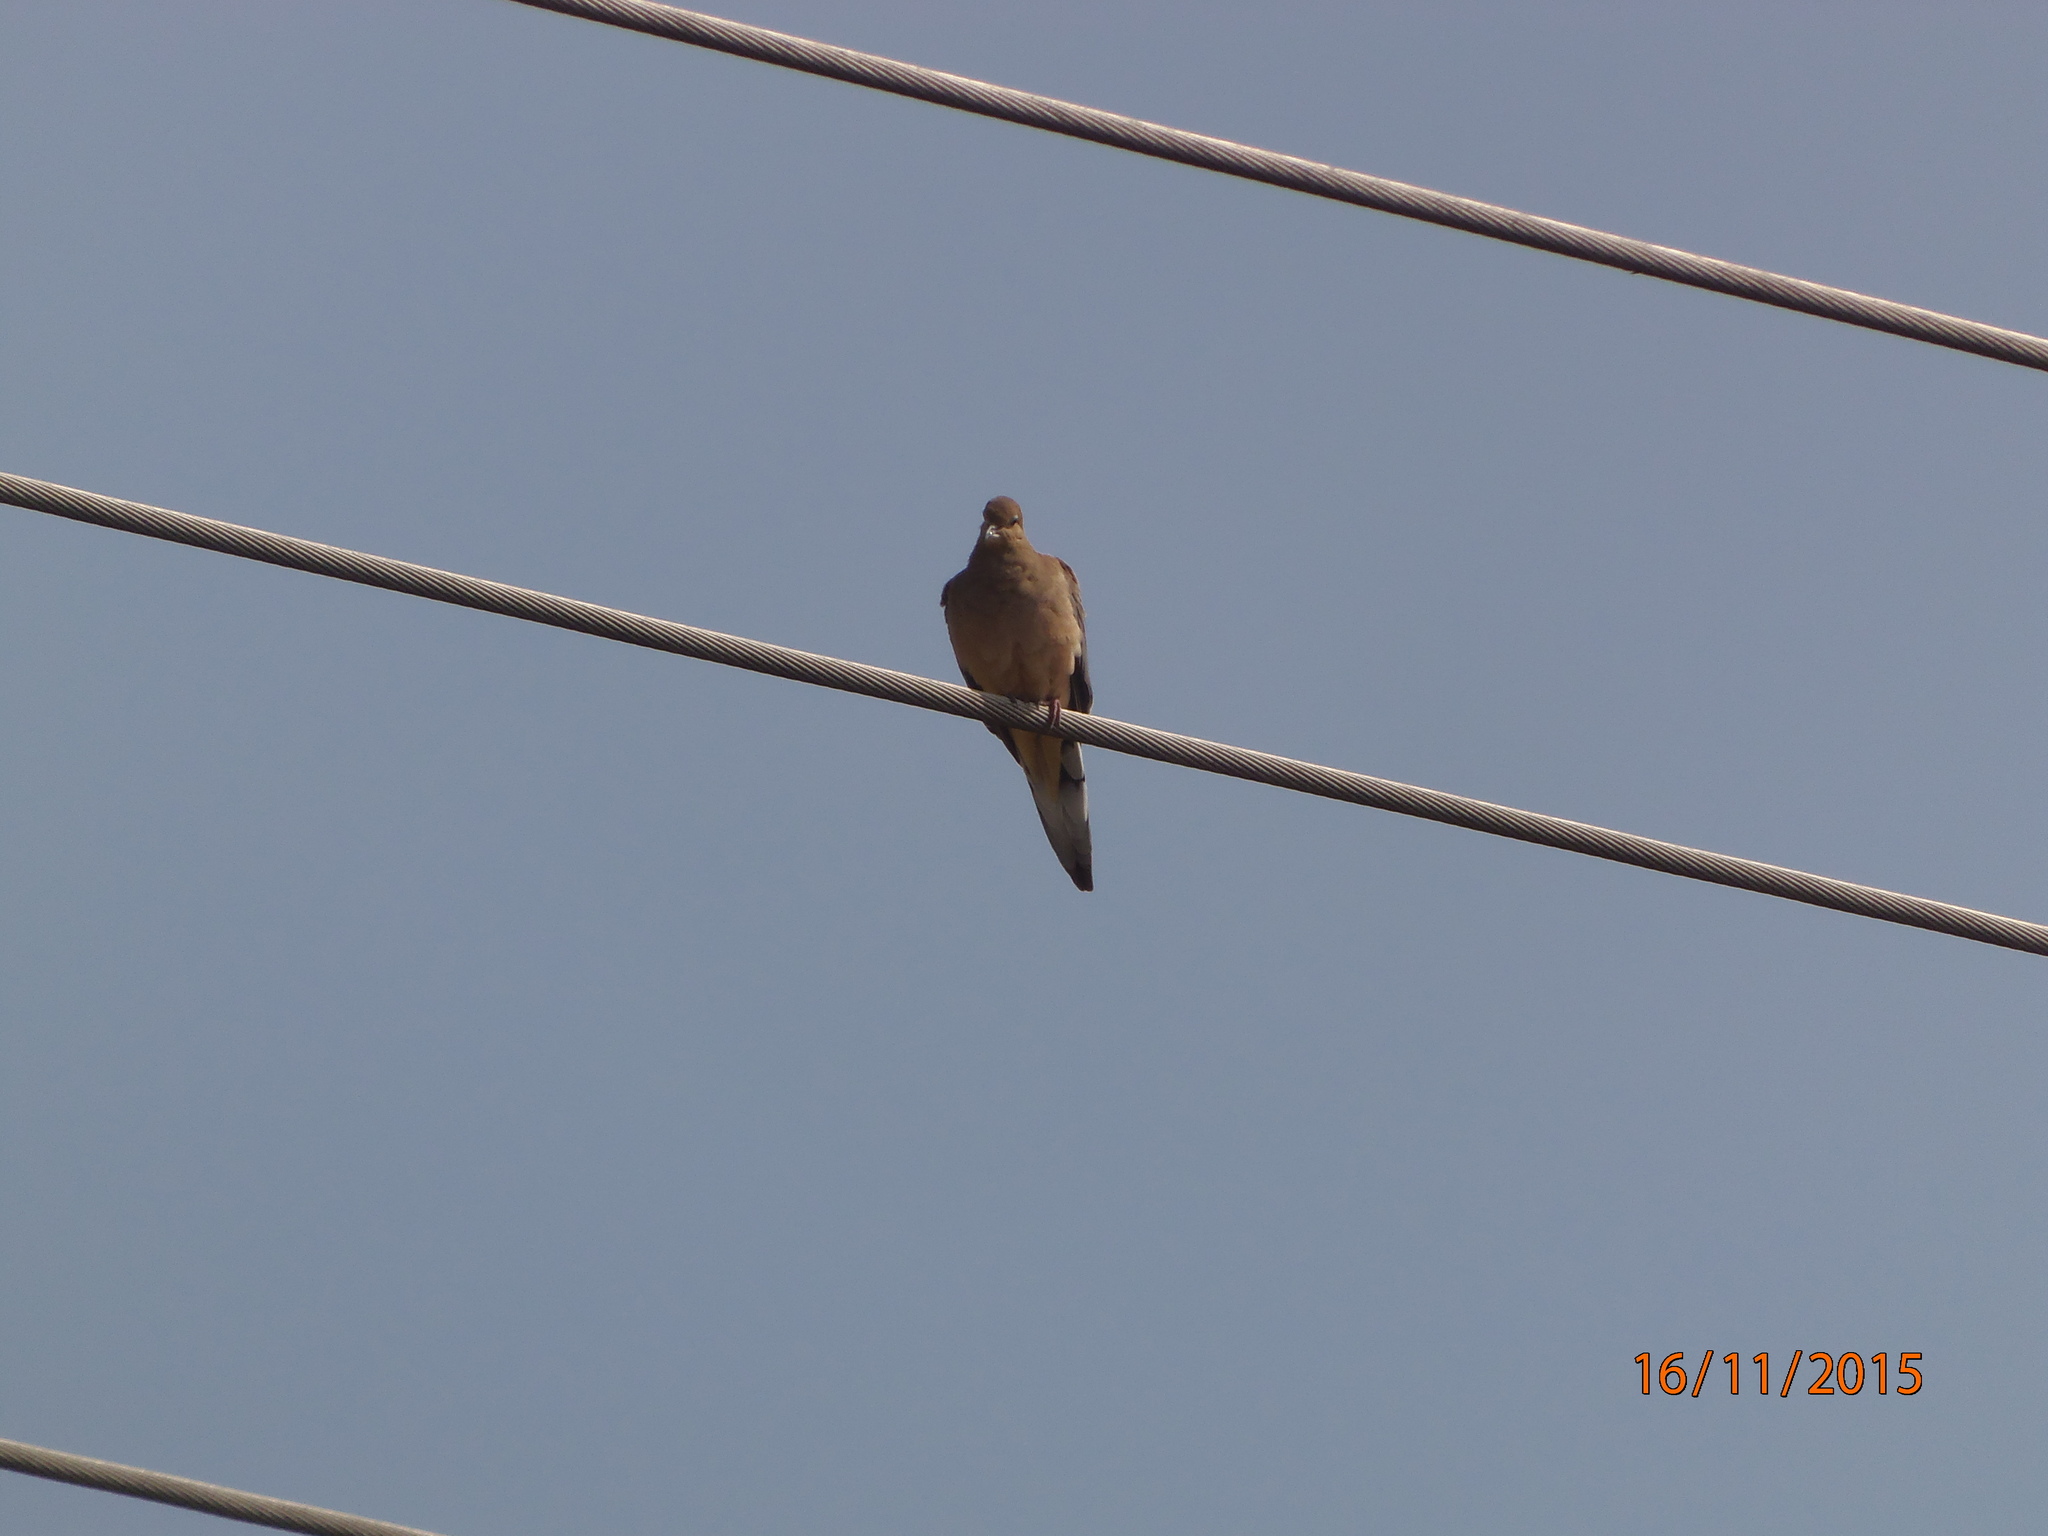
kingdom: Animalia
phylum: Chordata
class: Aves
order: Columbiformes
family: Columbidae
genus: Zenaida
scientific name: Zenaida macroura
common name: Mourning dove
